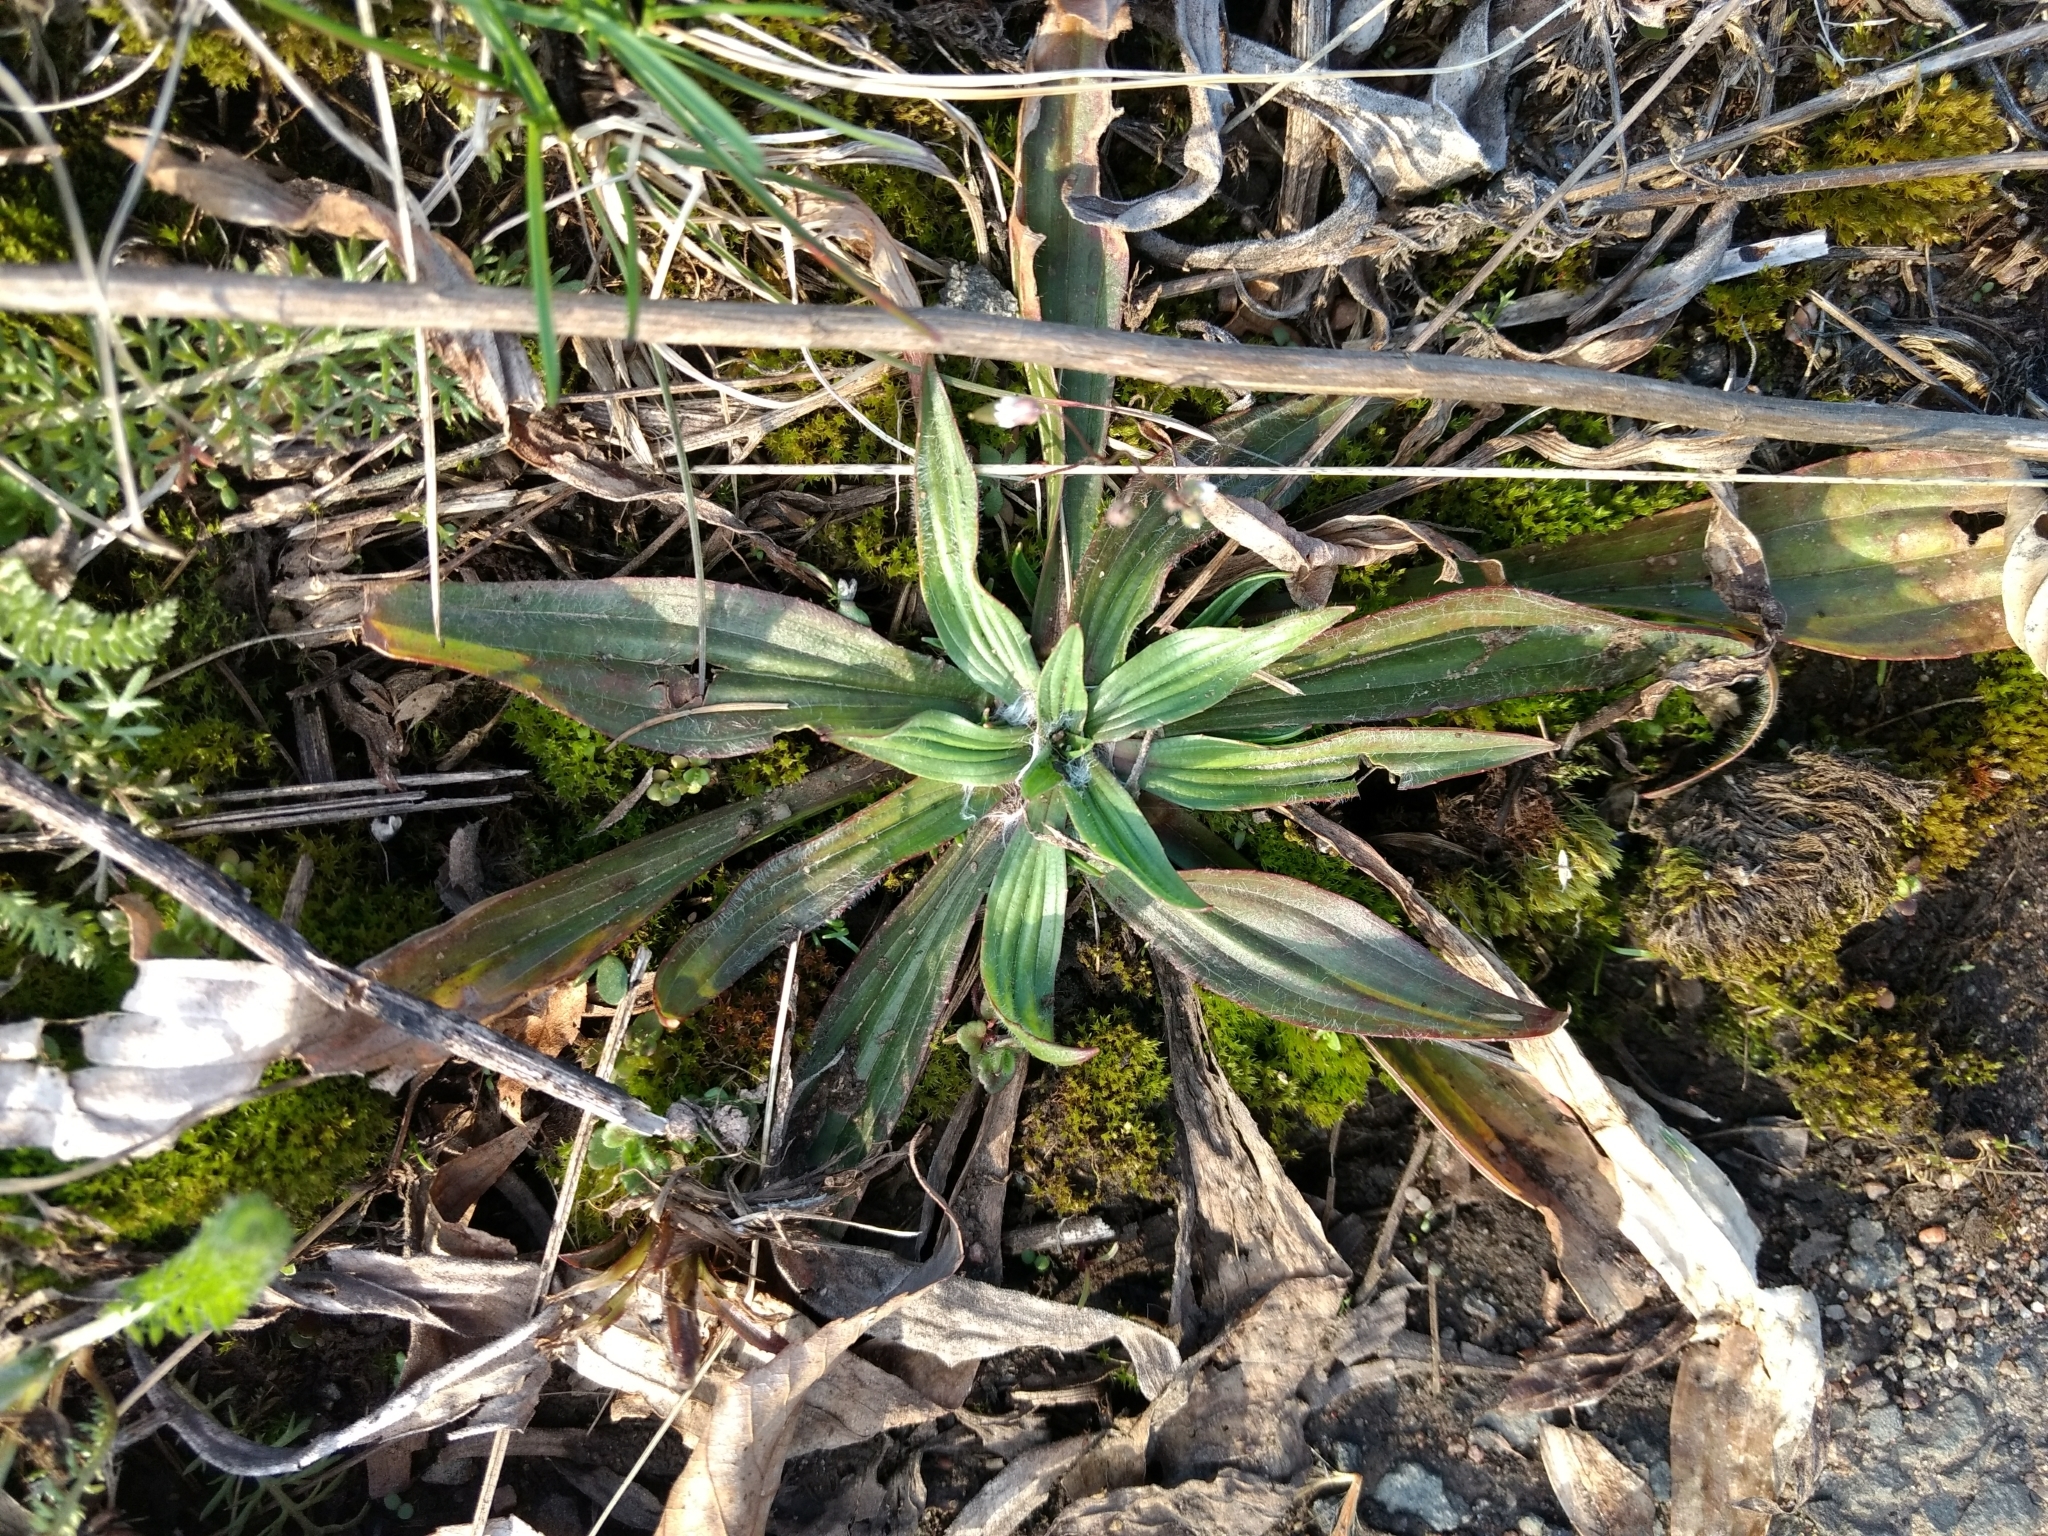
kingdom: Plantae
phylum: Tracheophyta
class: Magnoliopsida
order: Lamiales
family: Plantaginaceae
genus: Plantago
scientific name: Plantago lanceolata
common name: Ribwort plantain
